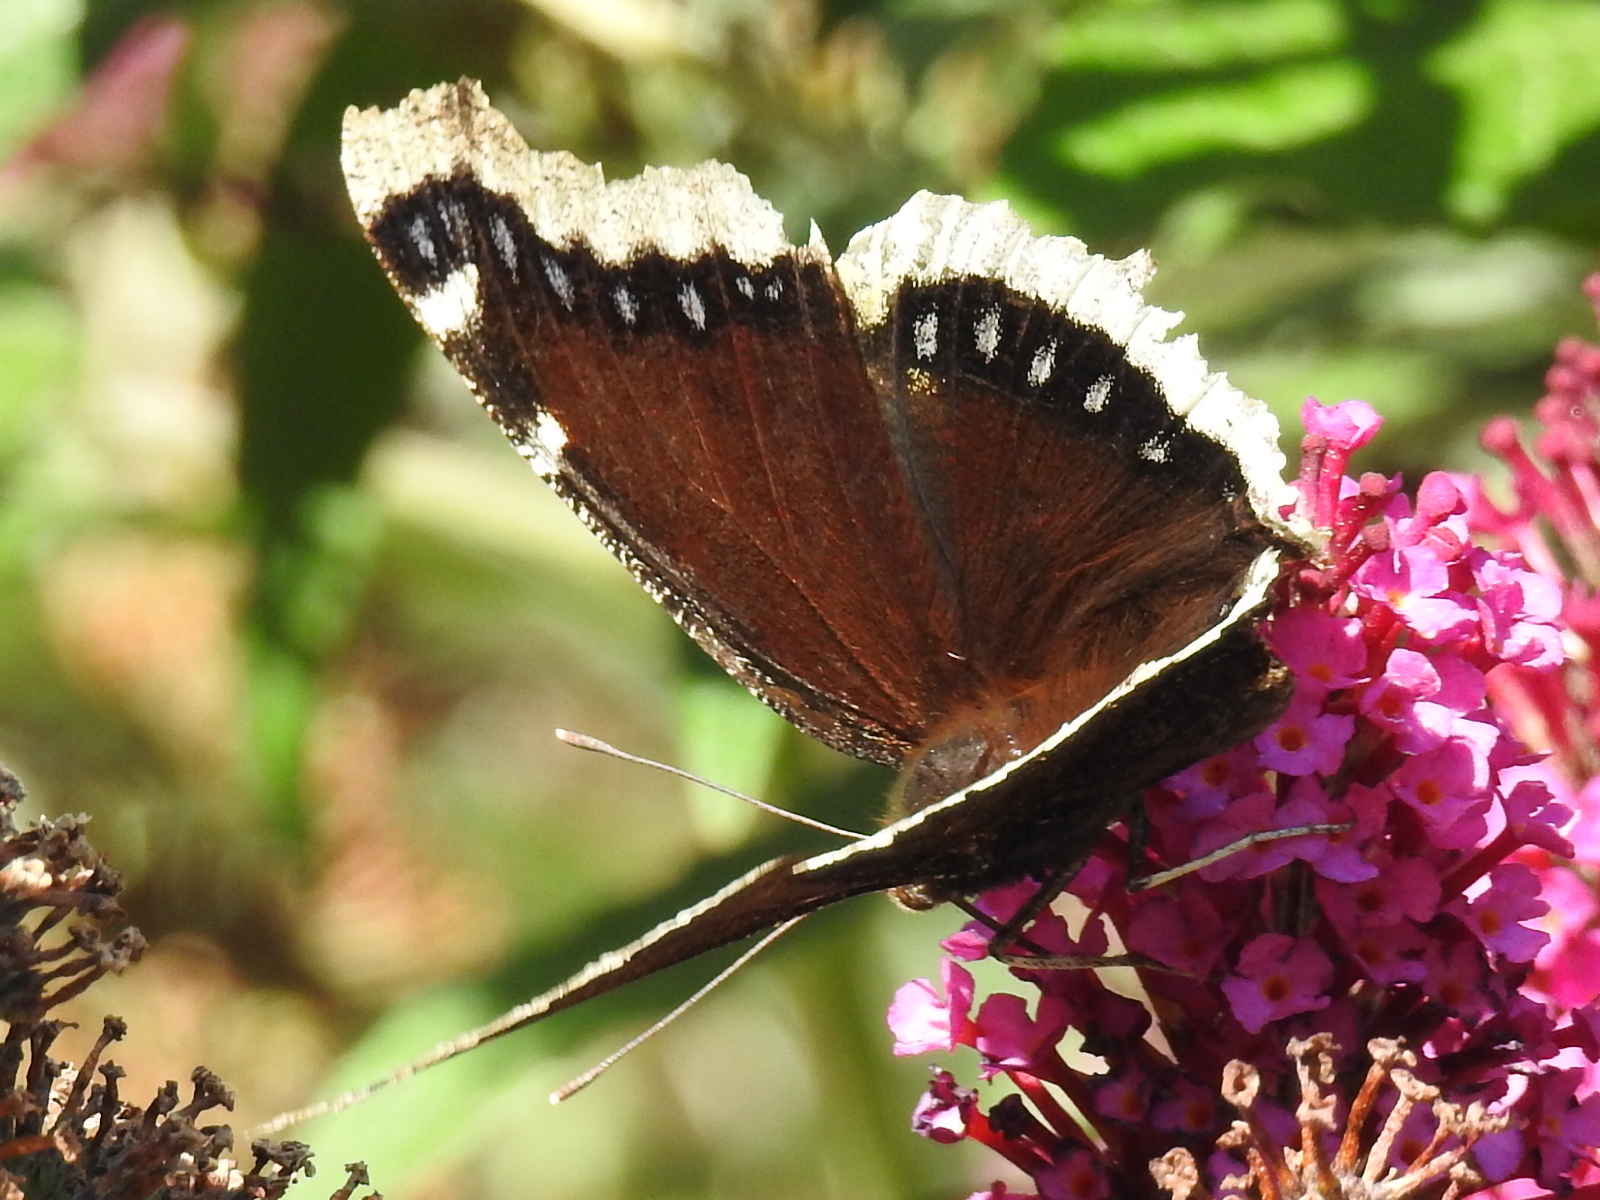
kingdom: Animalia
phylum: Arthropoda
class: Insecta
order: Lepidoptera
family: Nymphalidae
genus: Nymphalis
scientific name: Nymphalis antiopa
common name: Camberwell beauty
